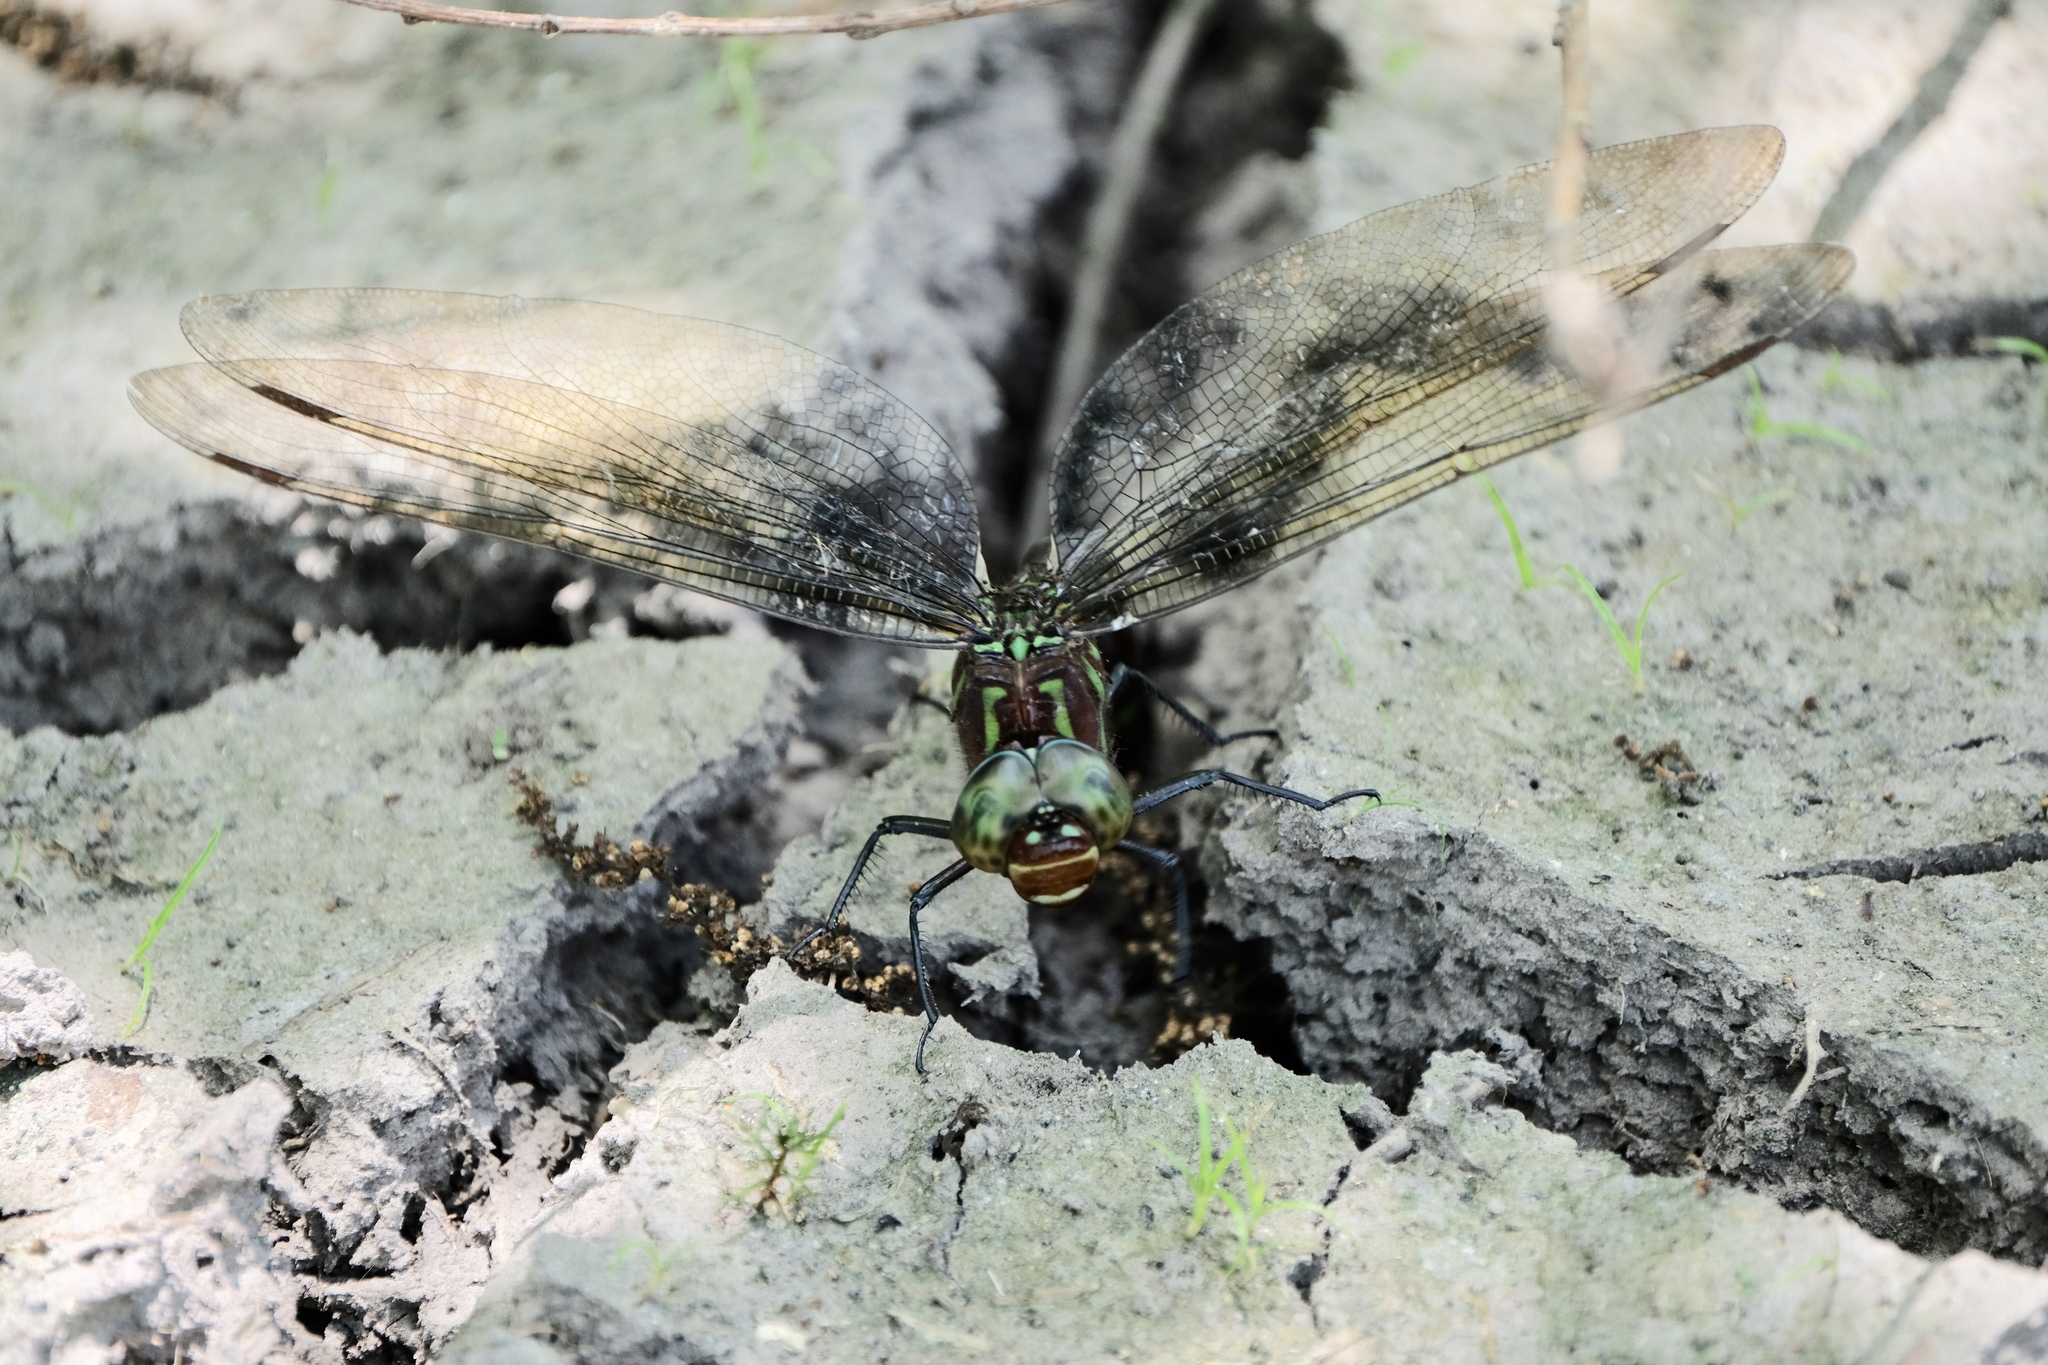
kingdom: Animalia
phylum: Arthropoda
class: Insecta
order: Odonata
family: Aeshnidae
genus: Epiaeschna
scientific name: Epiaeschna heros
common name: Swamp darner
